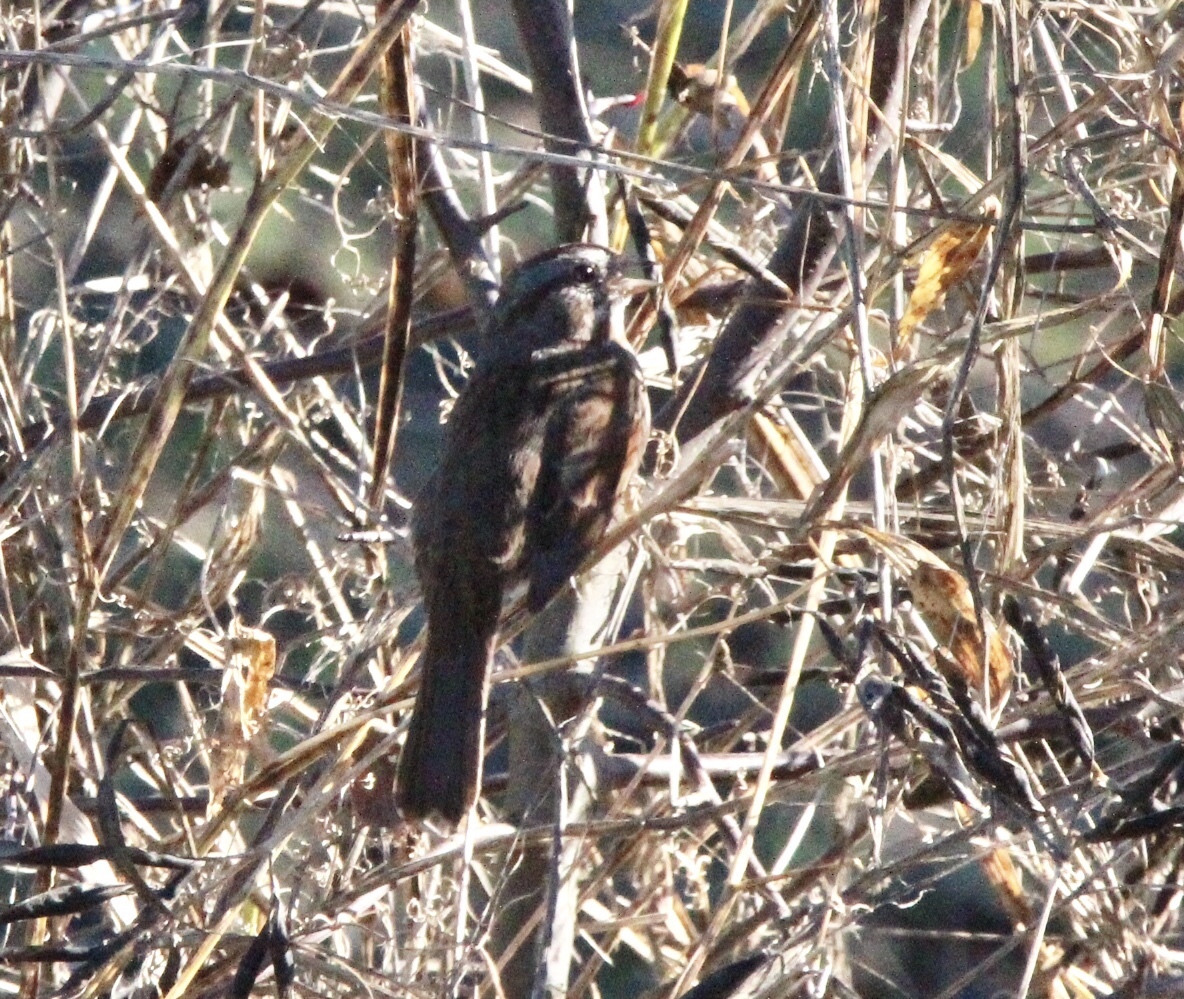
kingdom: Animalia
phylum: Chordata
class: Aves
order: Passeriformes
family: Passerellidae
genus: Melospiza
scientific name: Melospiza melodia
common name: Song sparrow
